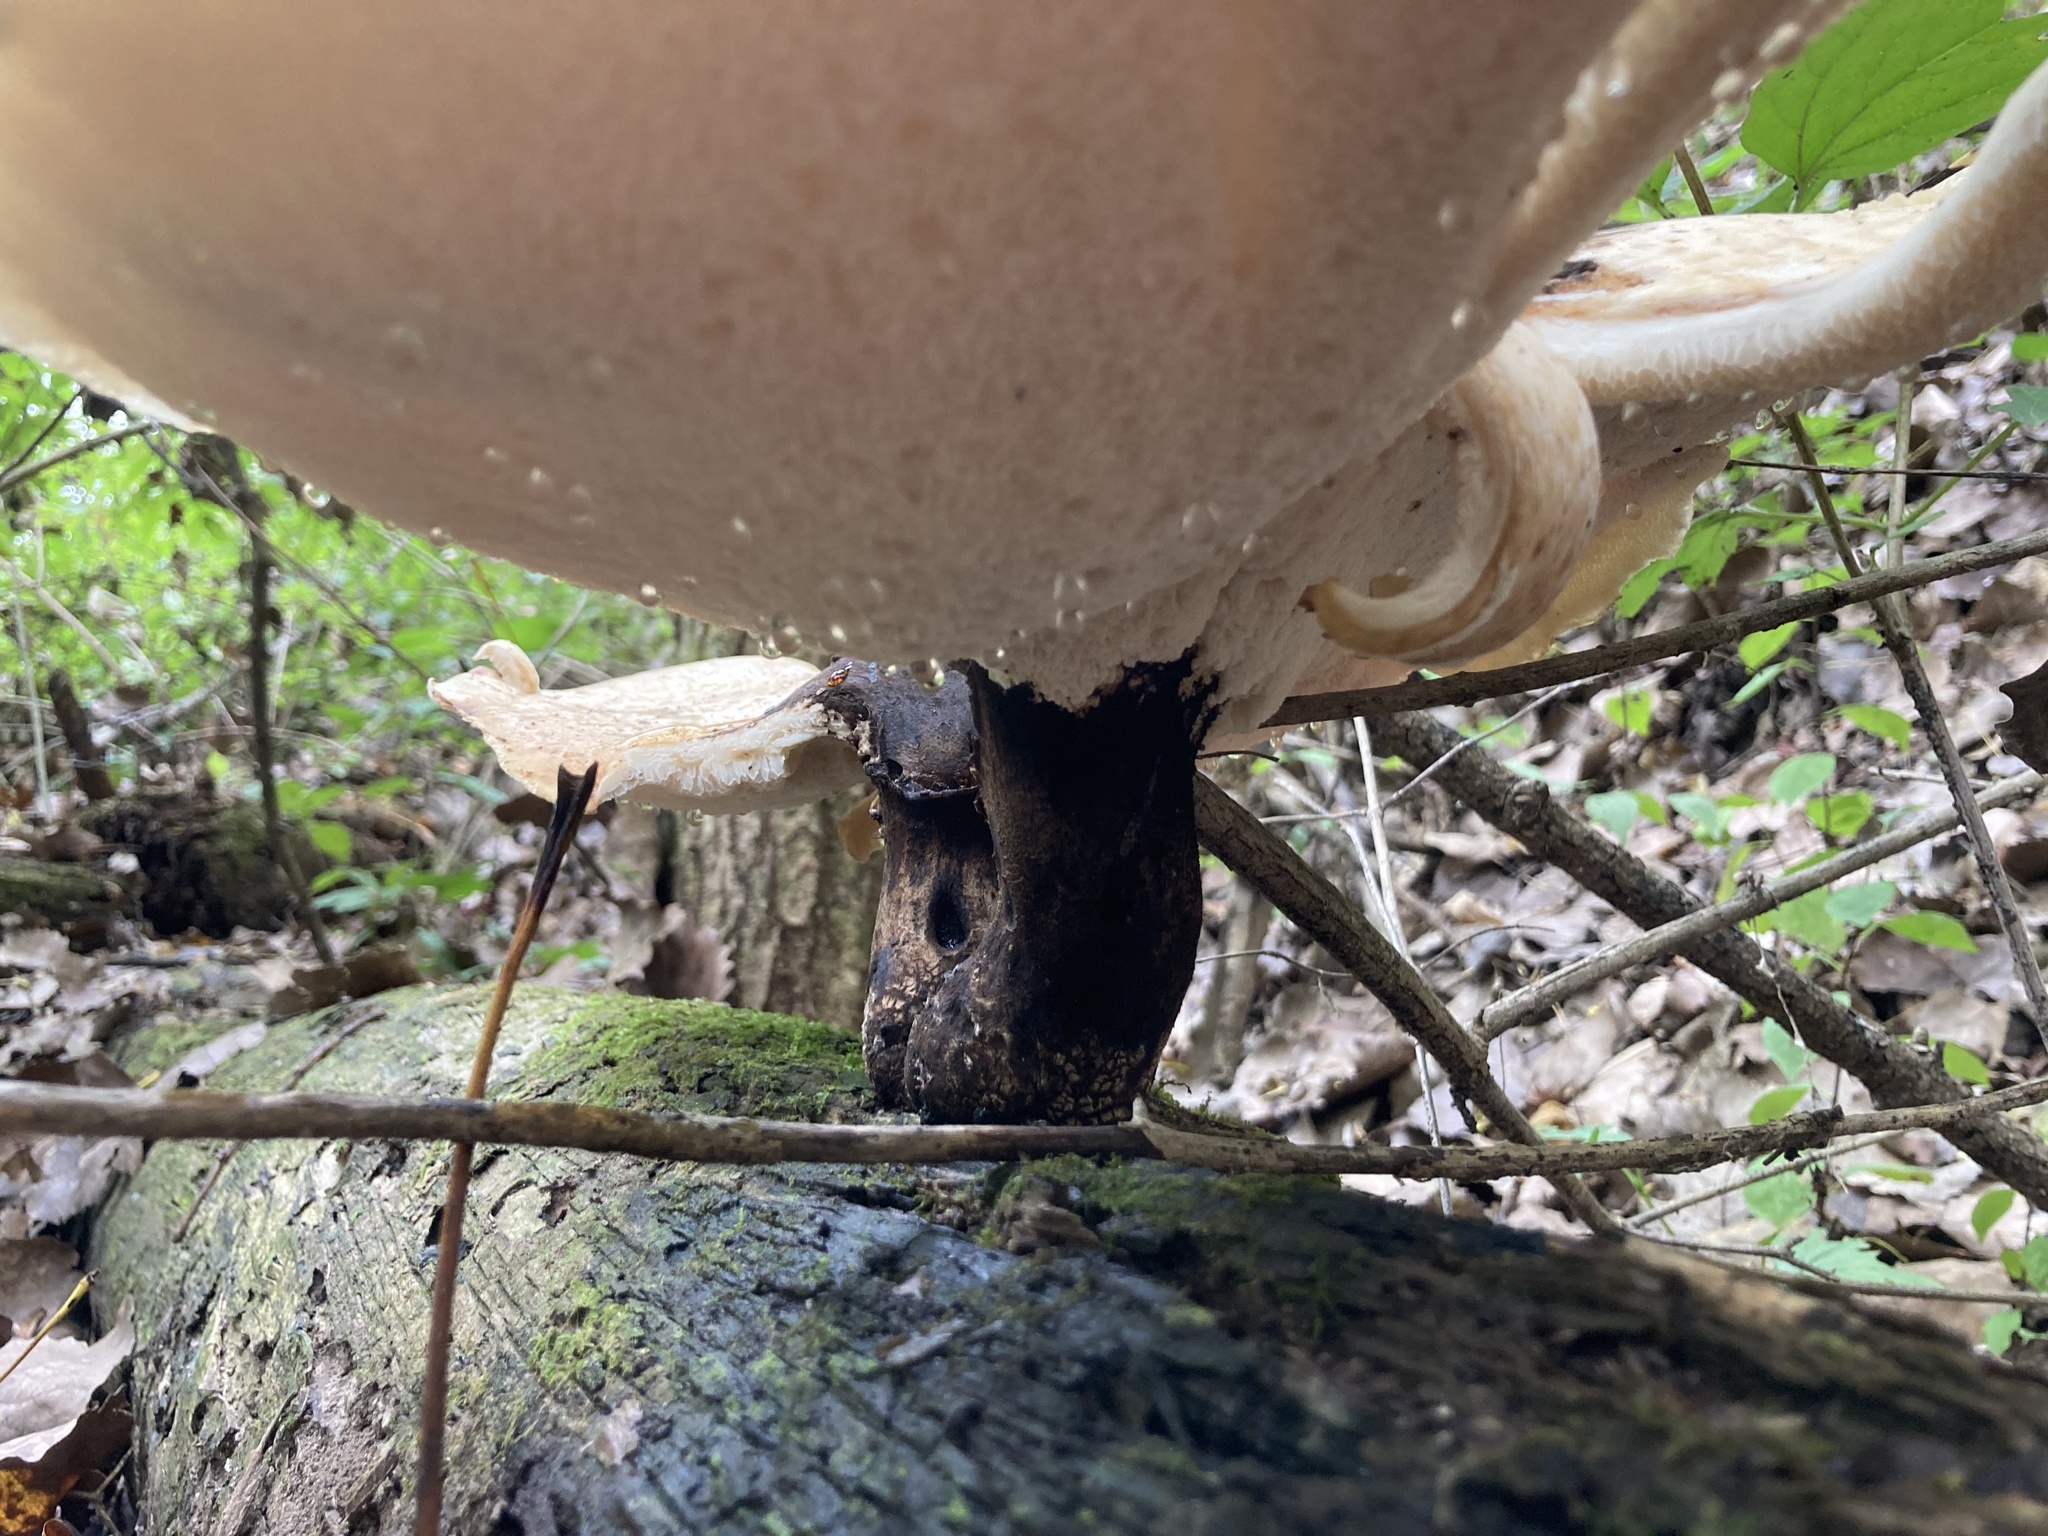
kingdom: Fungi
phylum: Basidiomycota
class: Agaricomycetes
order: Polyporales
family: Polyporaceae
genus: Cerioporus
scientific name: Cerioporus squamosus
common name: Dryad's saddle
